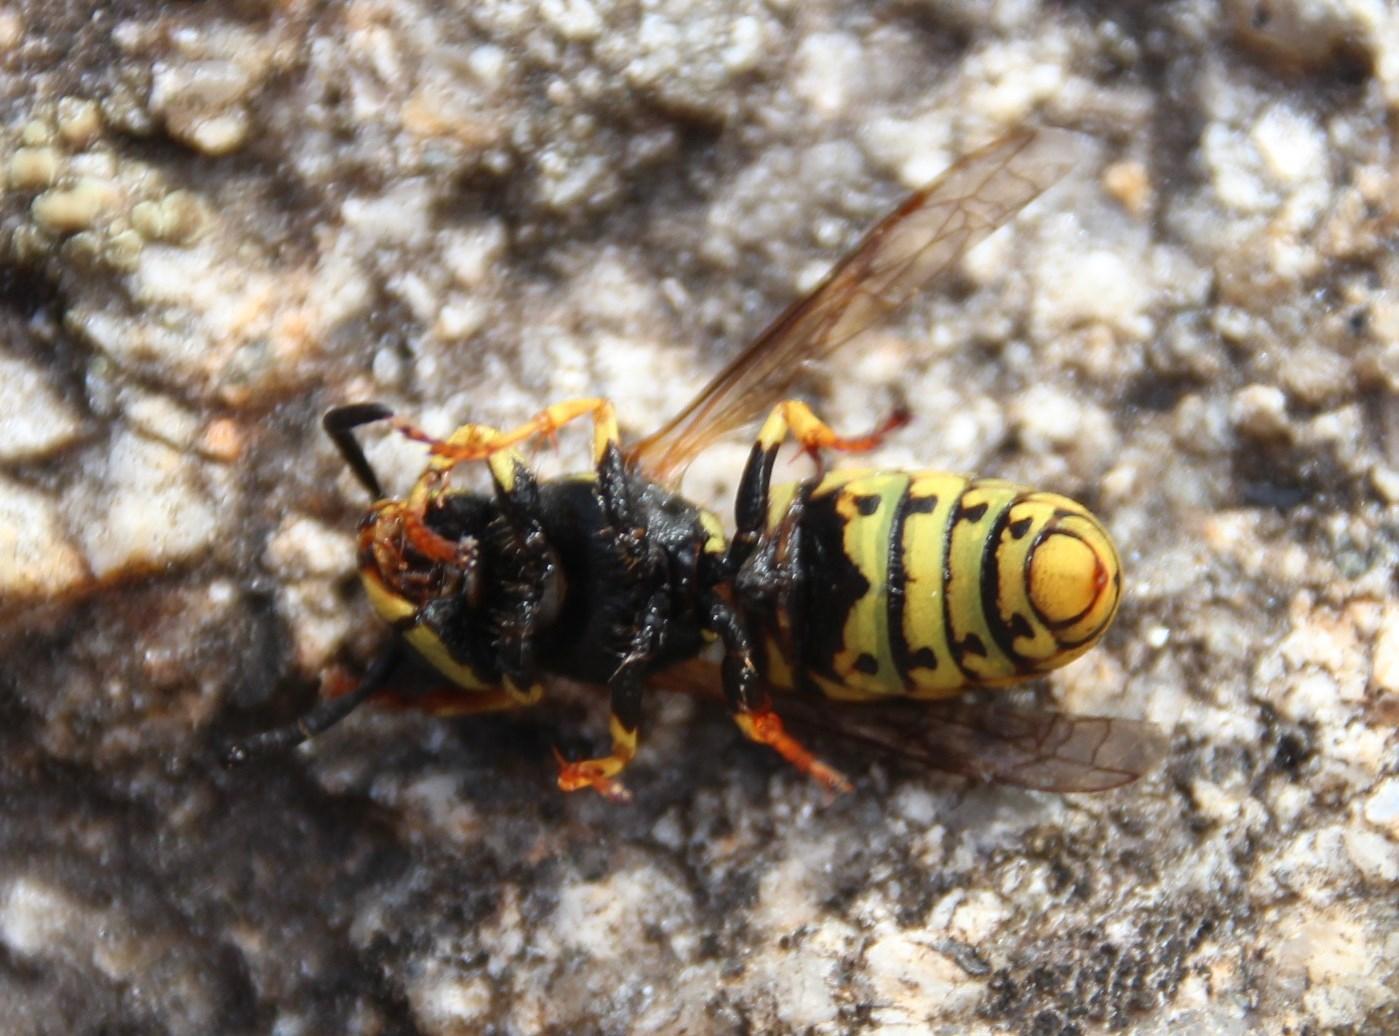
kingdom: Animalia
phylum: Arthropoda
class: Insecta
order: Hymenoptera
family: Vespidae
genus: Vespula
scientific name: Vespula germanica
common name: German wasp
